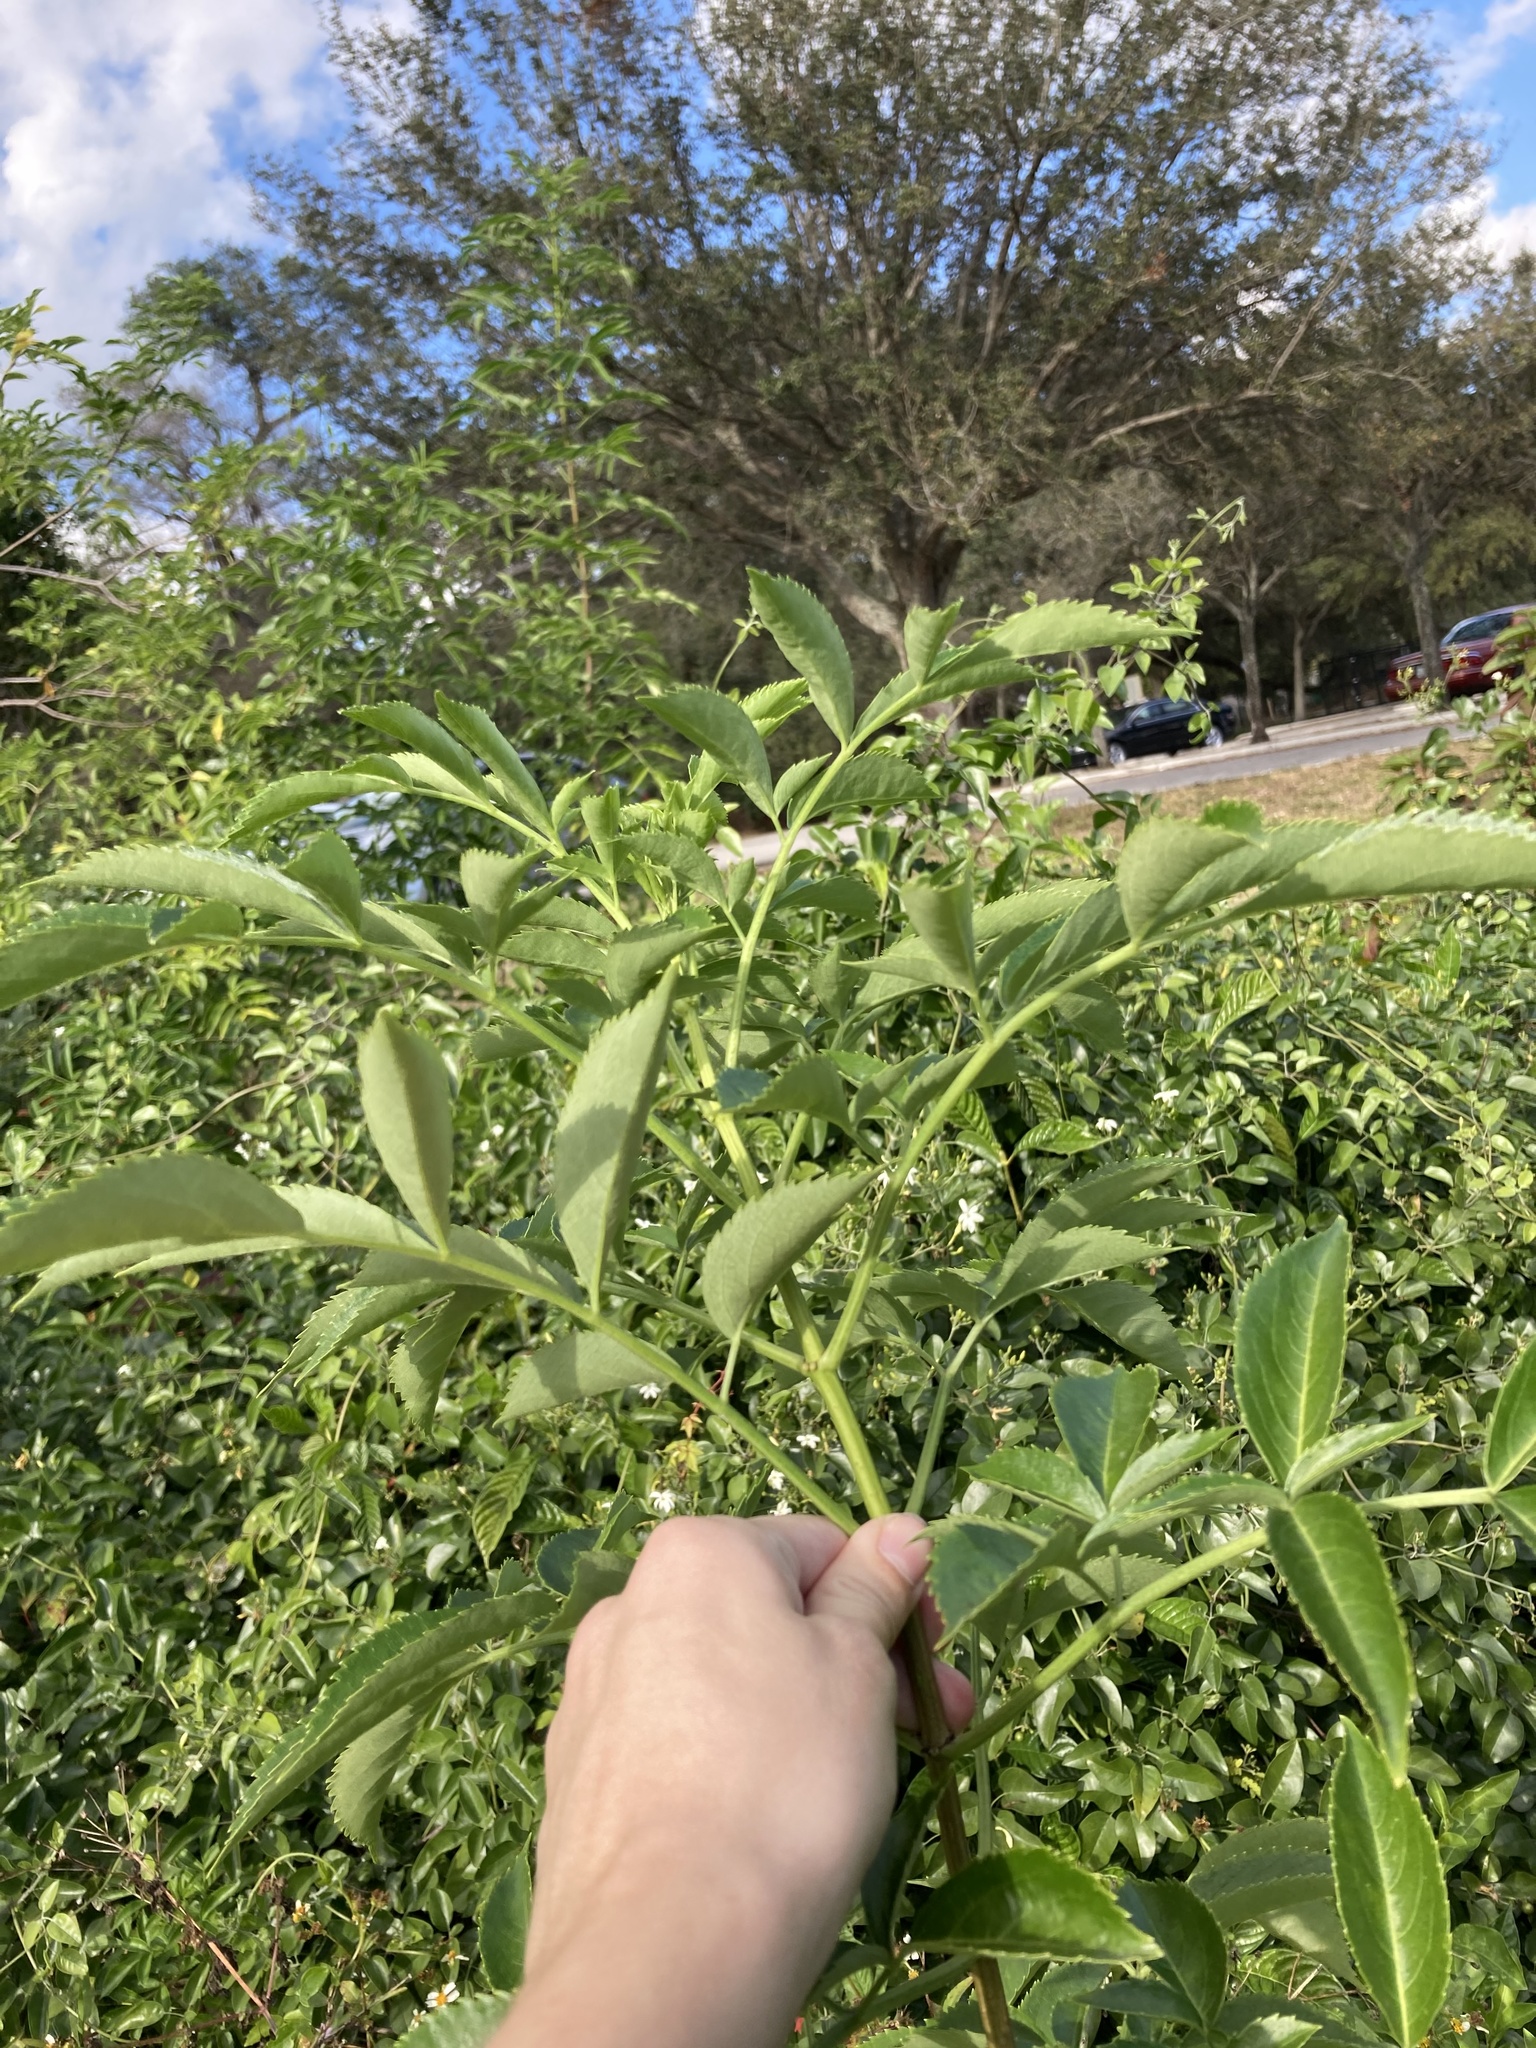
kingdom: Plantae
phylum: Tracheophyta
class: Magnoliopsida
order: Dipsacales
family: Viburnaceae
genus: Sambucus
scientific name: Sambucus canadensis
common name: American elder
